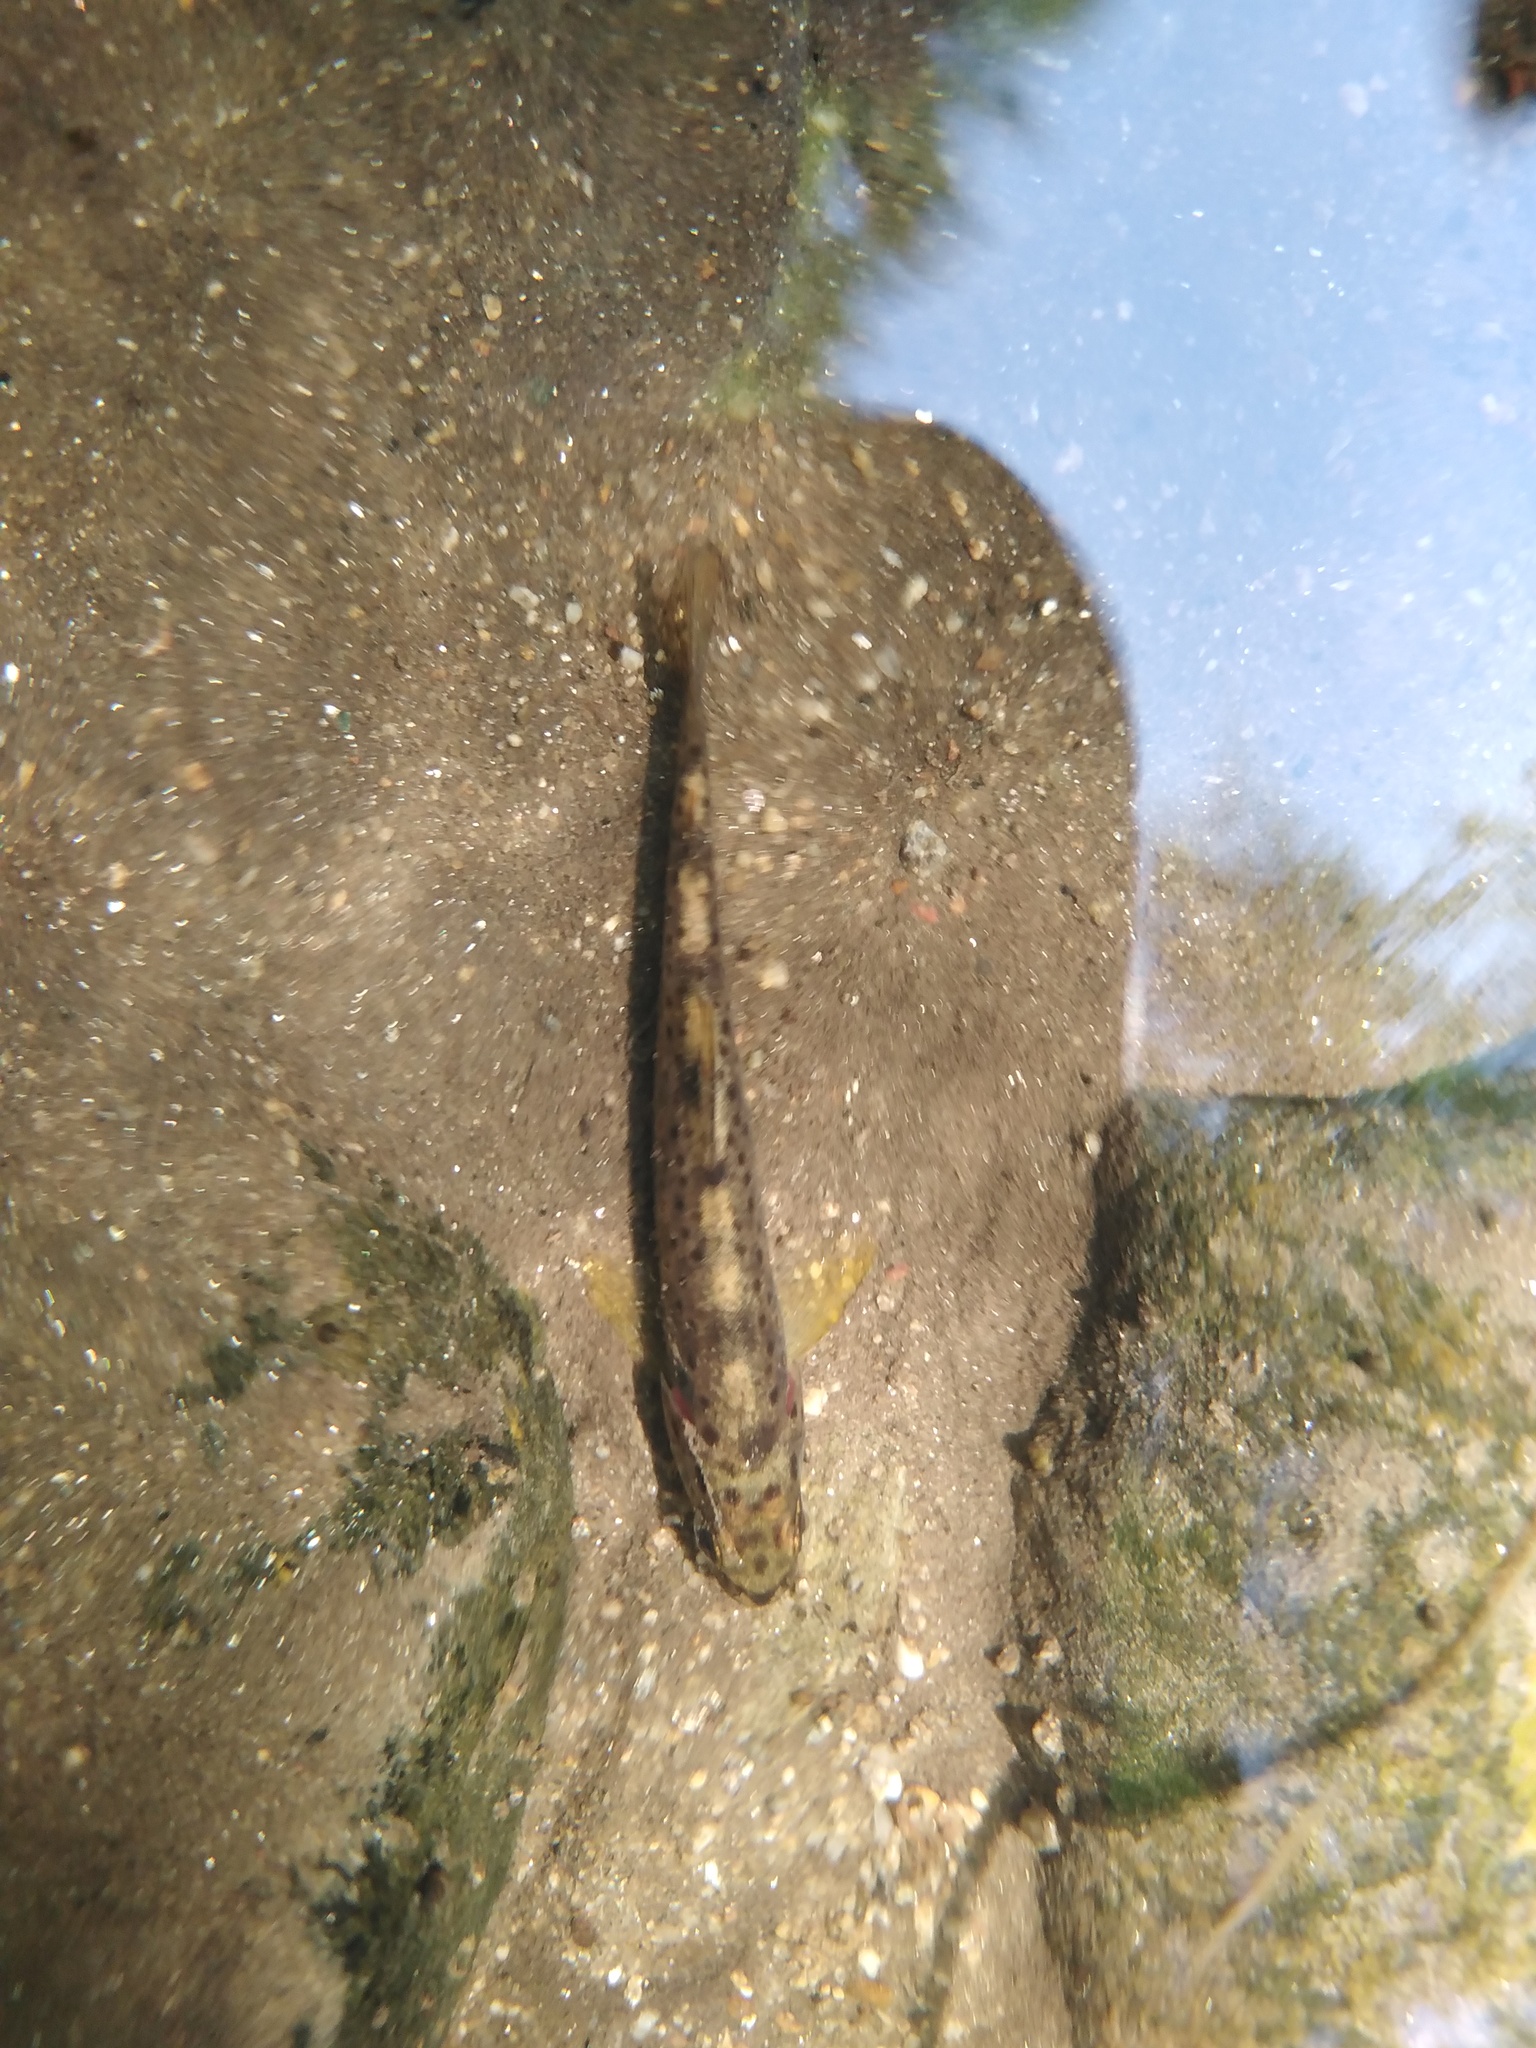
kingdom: Animalia
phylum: Chordata
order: Salmoniformes
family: Salmonidae
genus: Salmo
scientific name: Salmo trutta
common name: Brown trout
